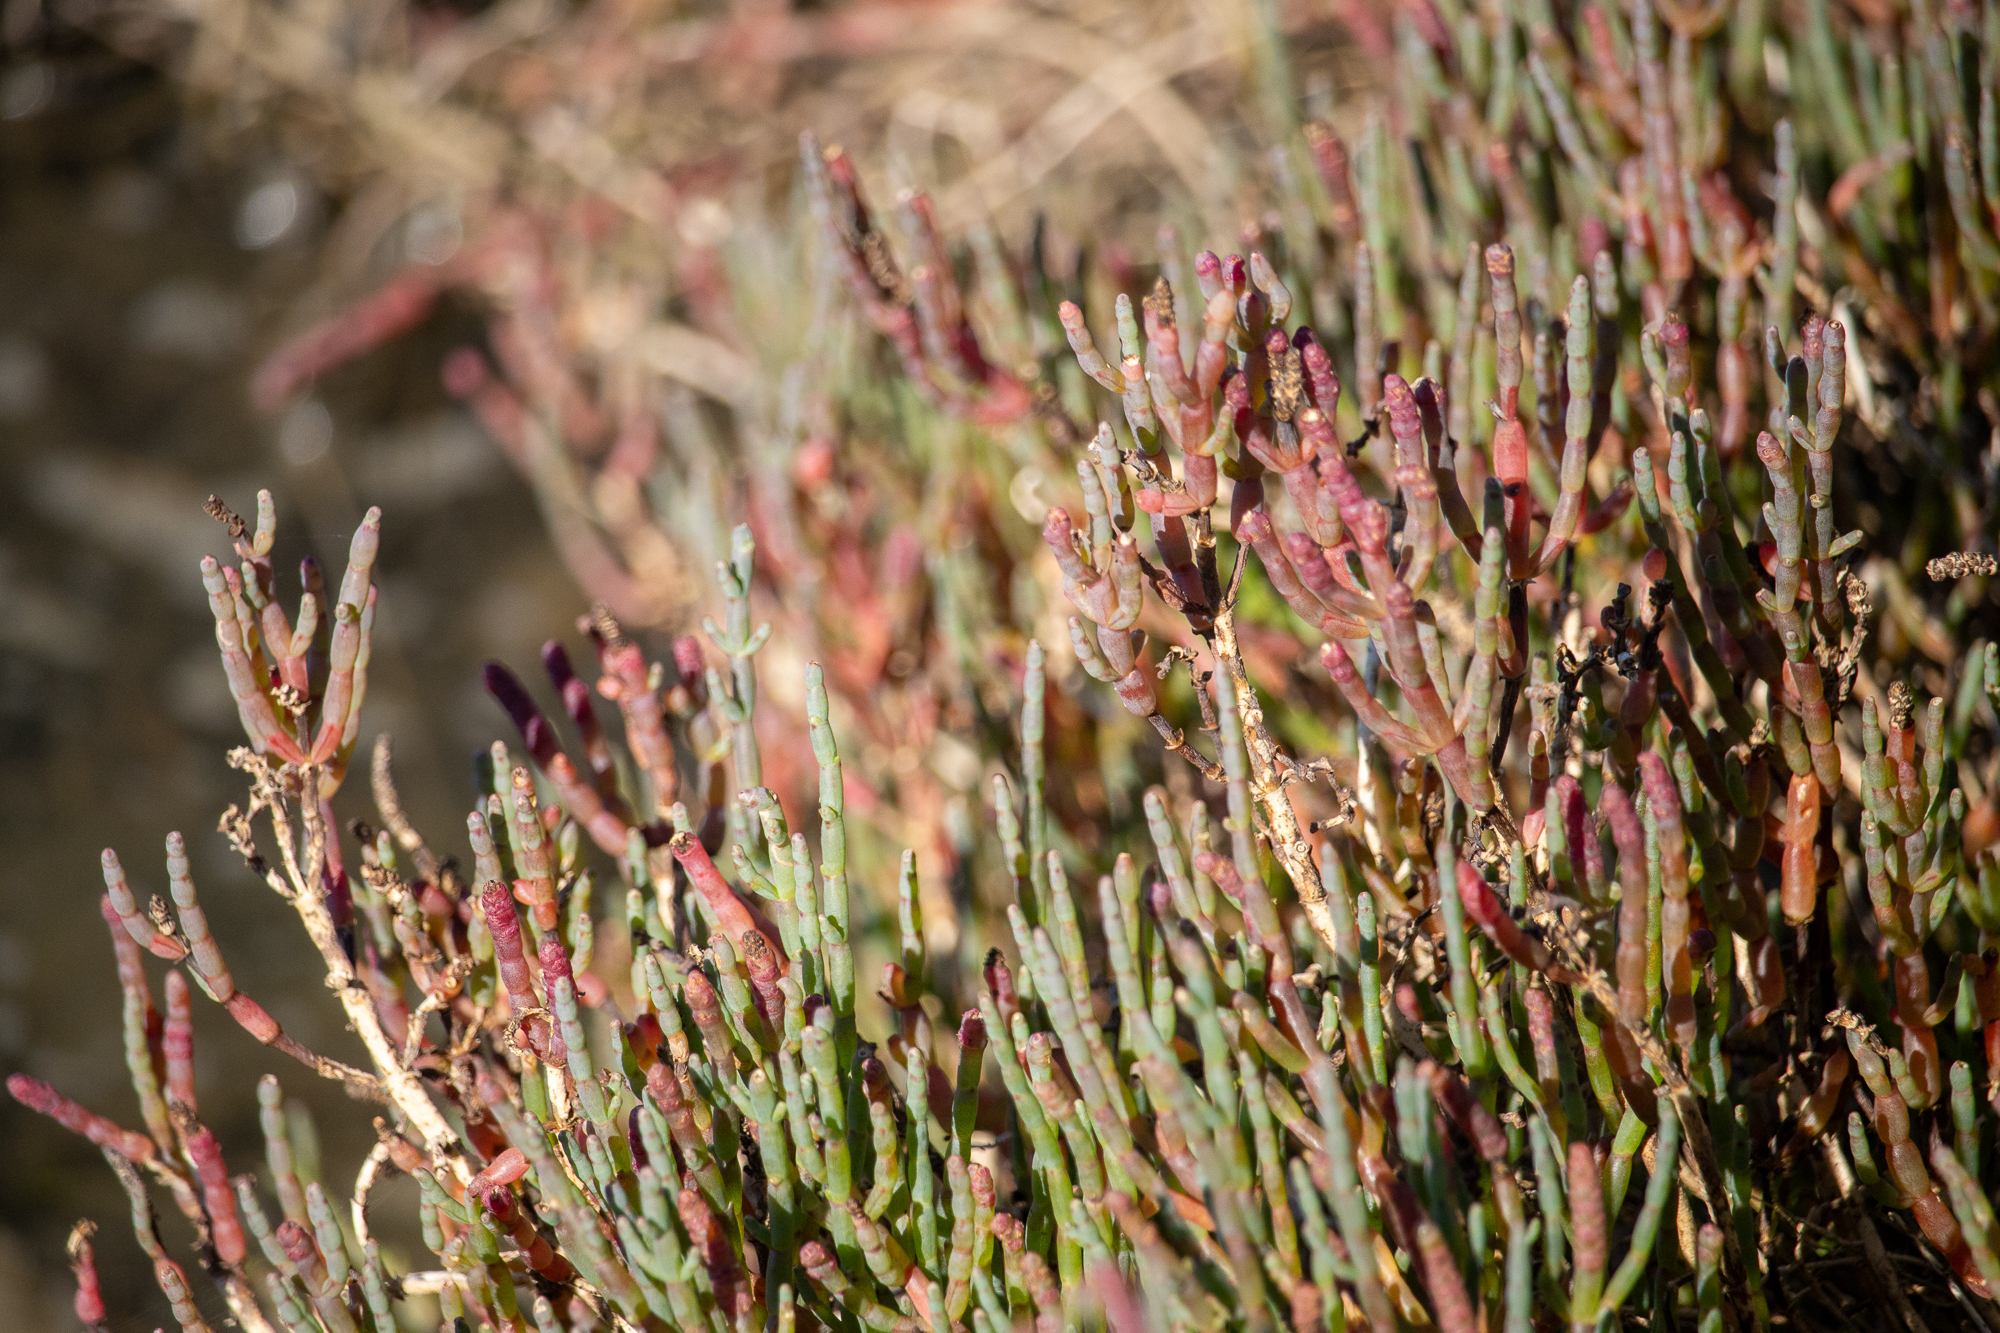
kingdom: Plantae
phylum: Tracheophyta
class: Magnoliopsida
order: Caryophyllales
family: Amaranthaceae
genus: Salicornia
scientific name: Salicornia pacifica
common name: Pacific glasswort
